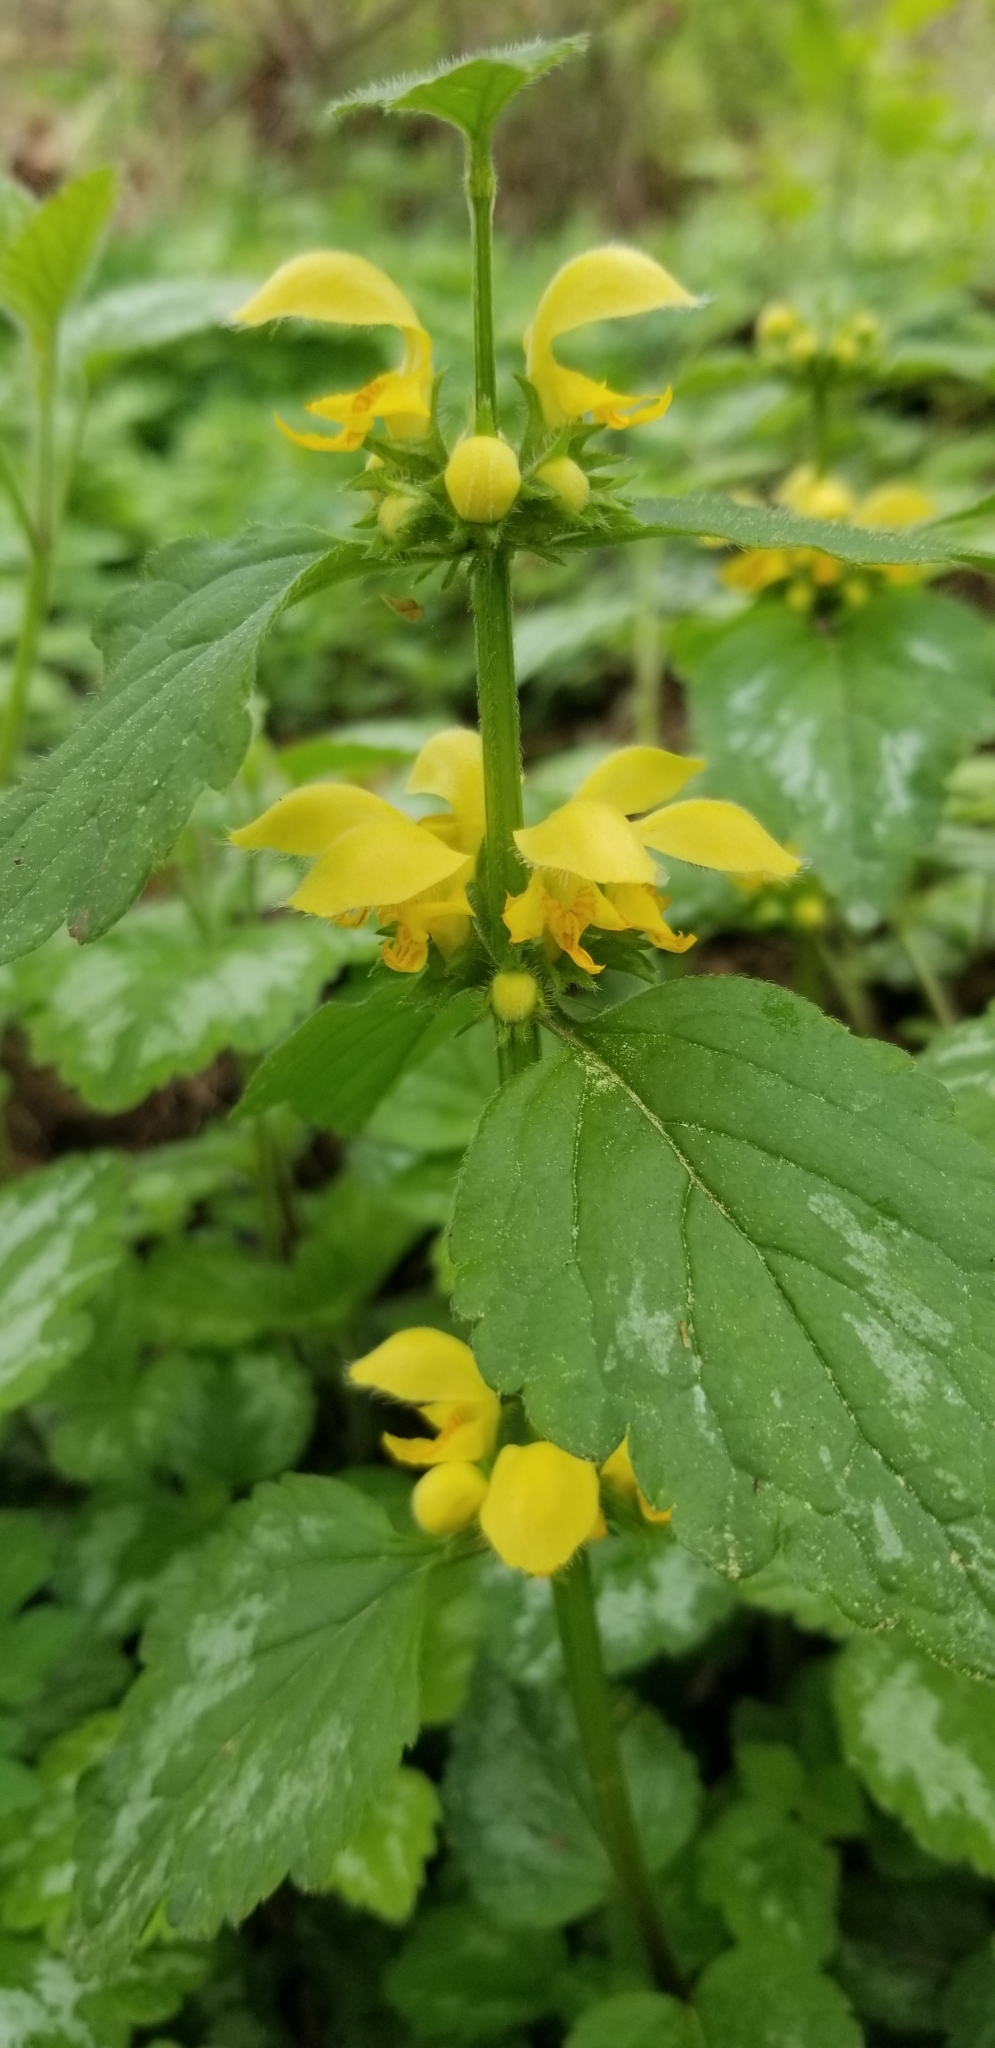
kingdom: Plantae
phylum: Tracheophyta
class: Magnoliopsida
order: Lamiales
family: Lamiaceae
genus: Lamium
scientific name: Lamium galeobdolon
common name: Yellow archangel
